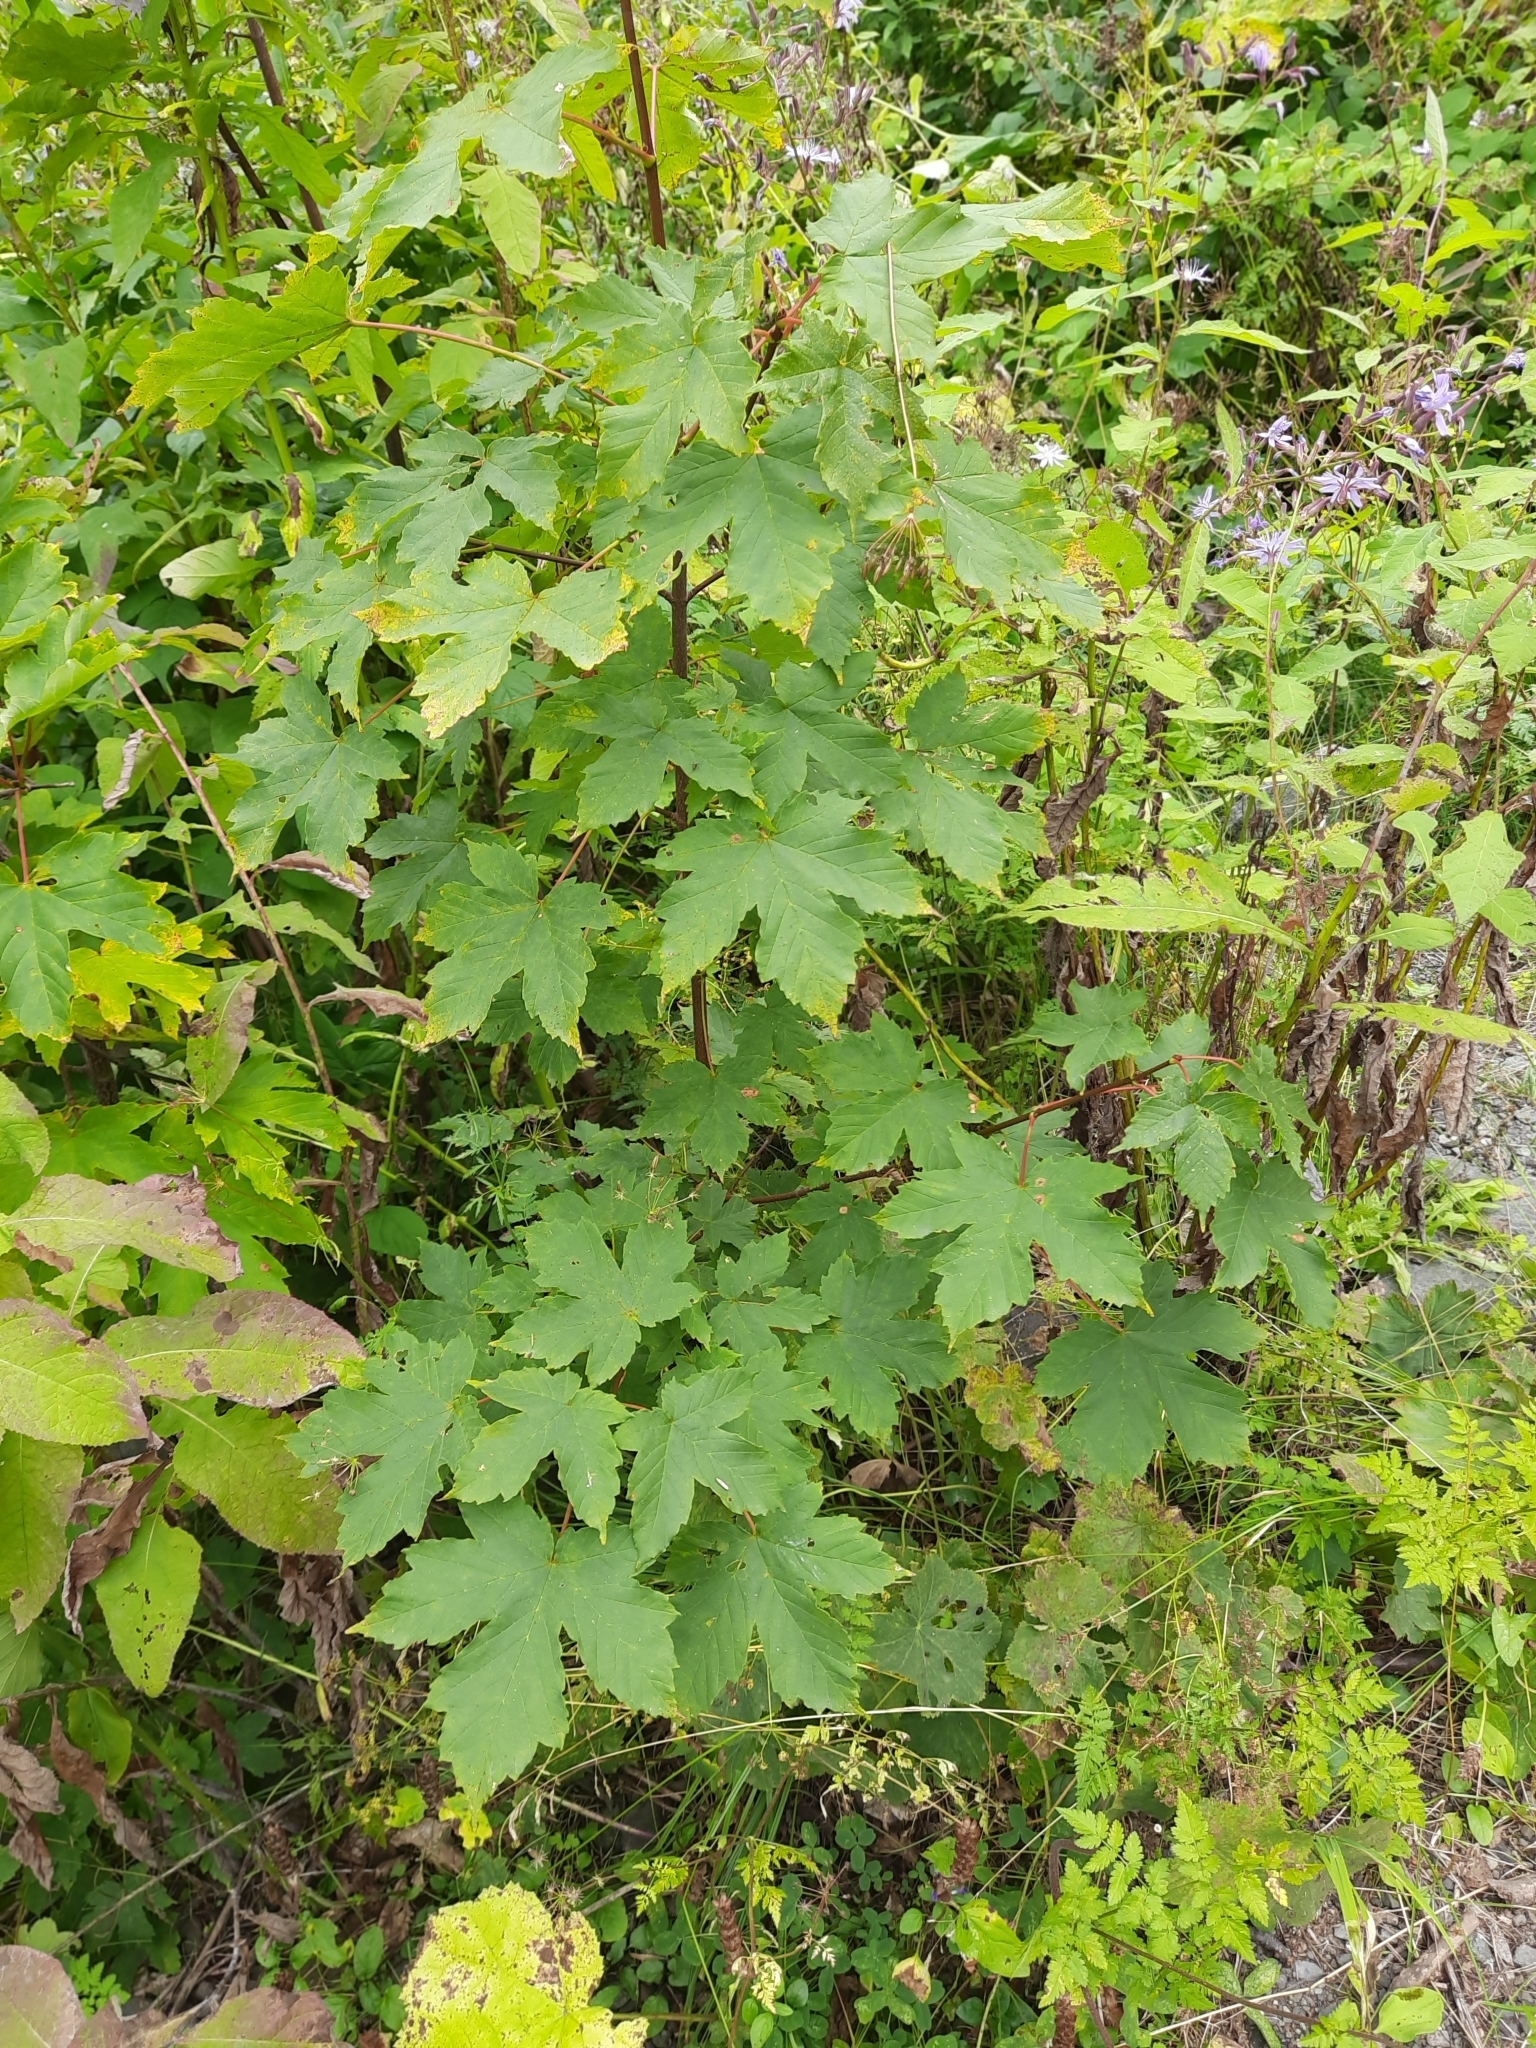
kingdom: Plantae
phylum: Tracheophyta
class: Magnoliopsida
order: Sapindales
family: Sapindaceae
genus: Acer
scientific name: Acer pseudoplatanus
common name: Sycamore
